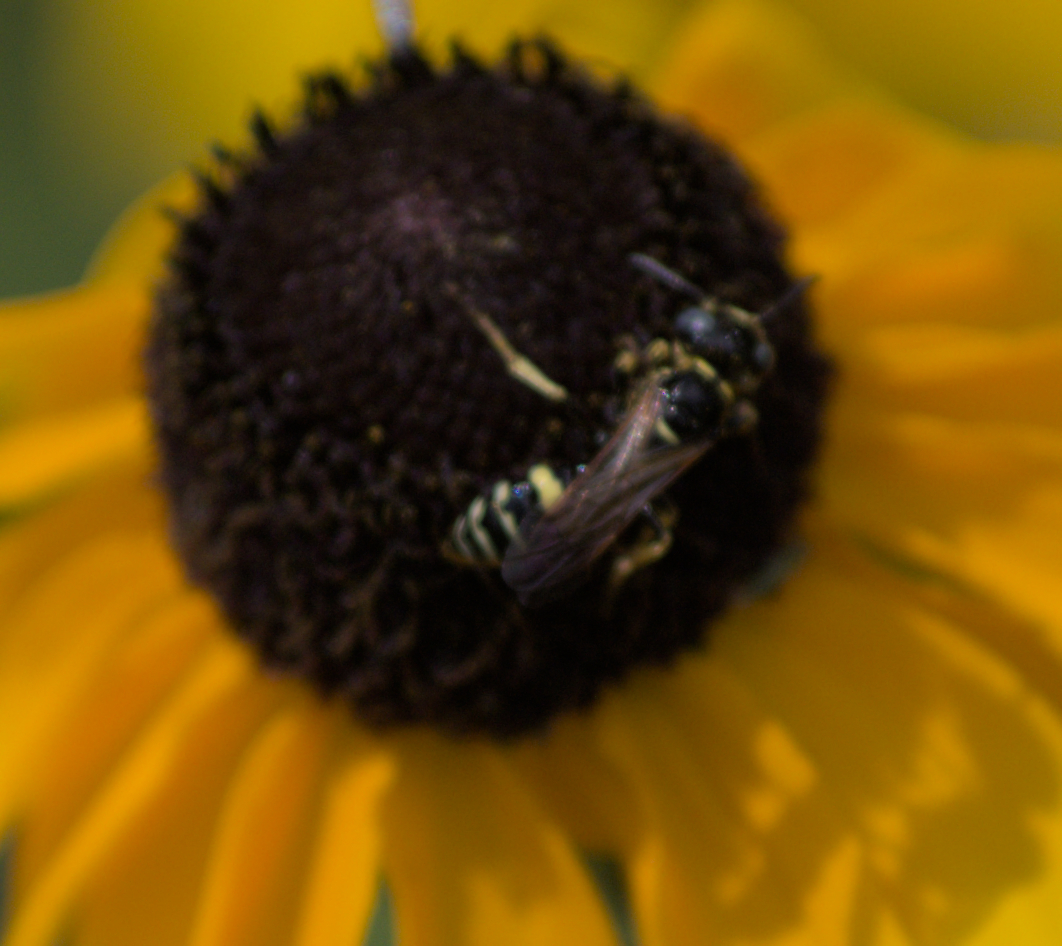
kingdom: Animalia
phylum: Arthropoda
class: Insecta
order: Hymenoptera
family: Crabronidae
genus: Philanthus
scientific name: Philanthus bilunatus
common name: Two moons beewolf
